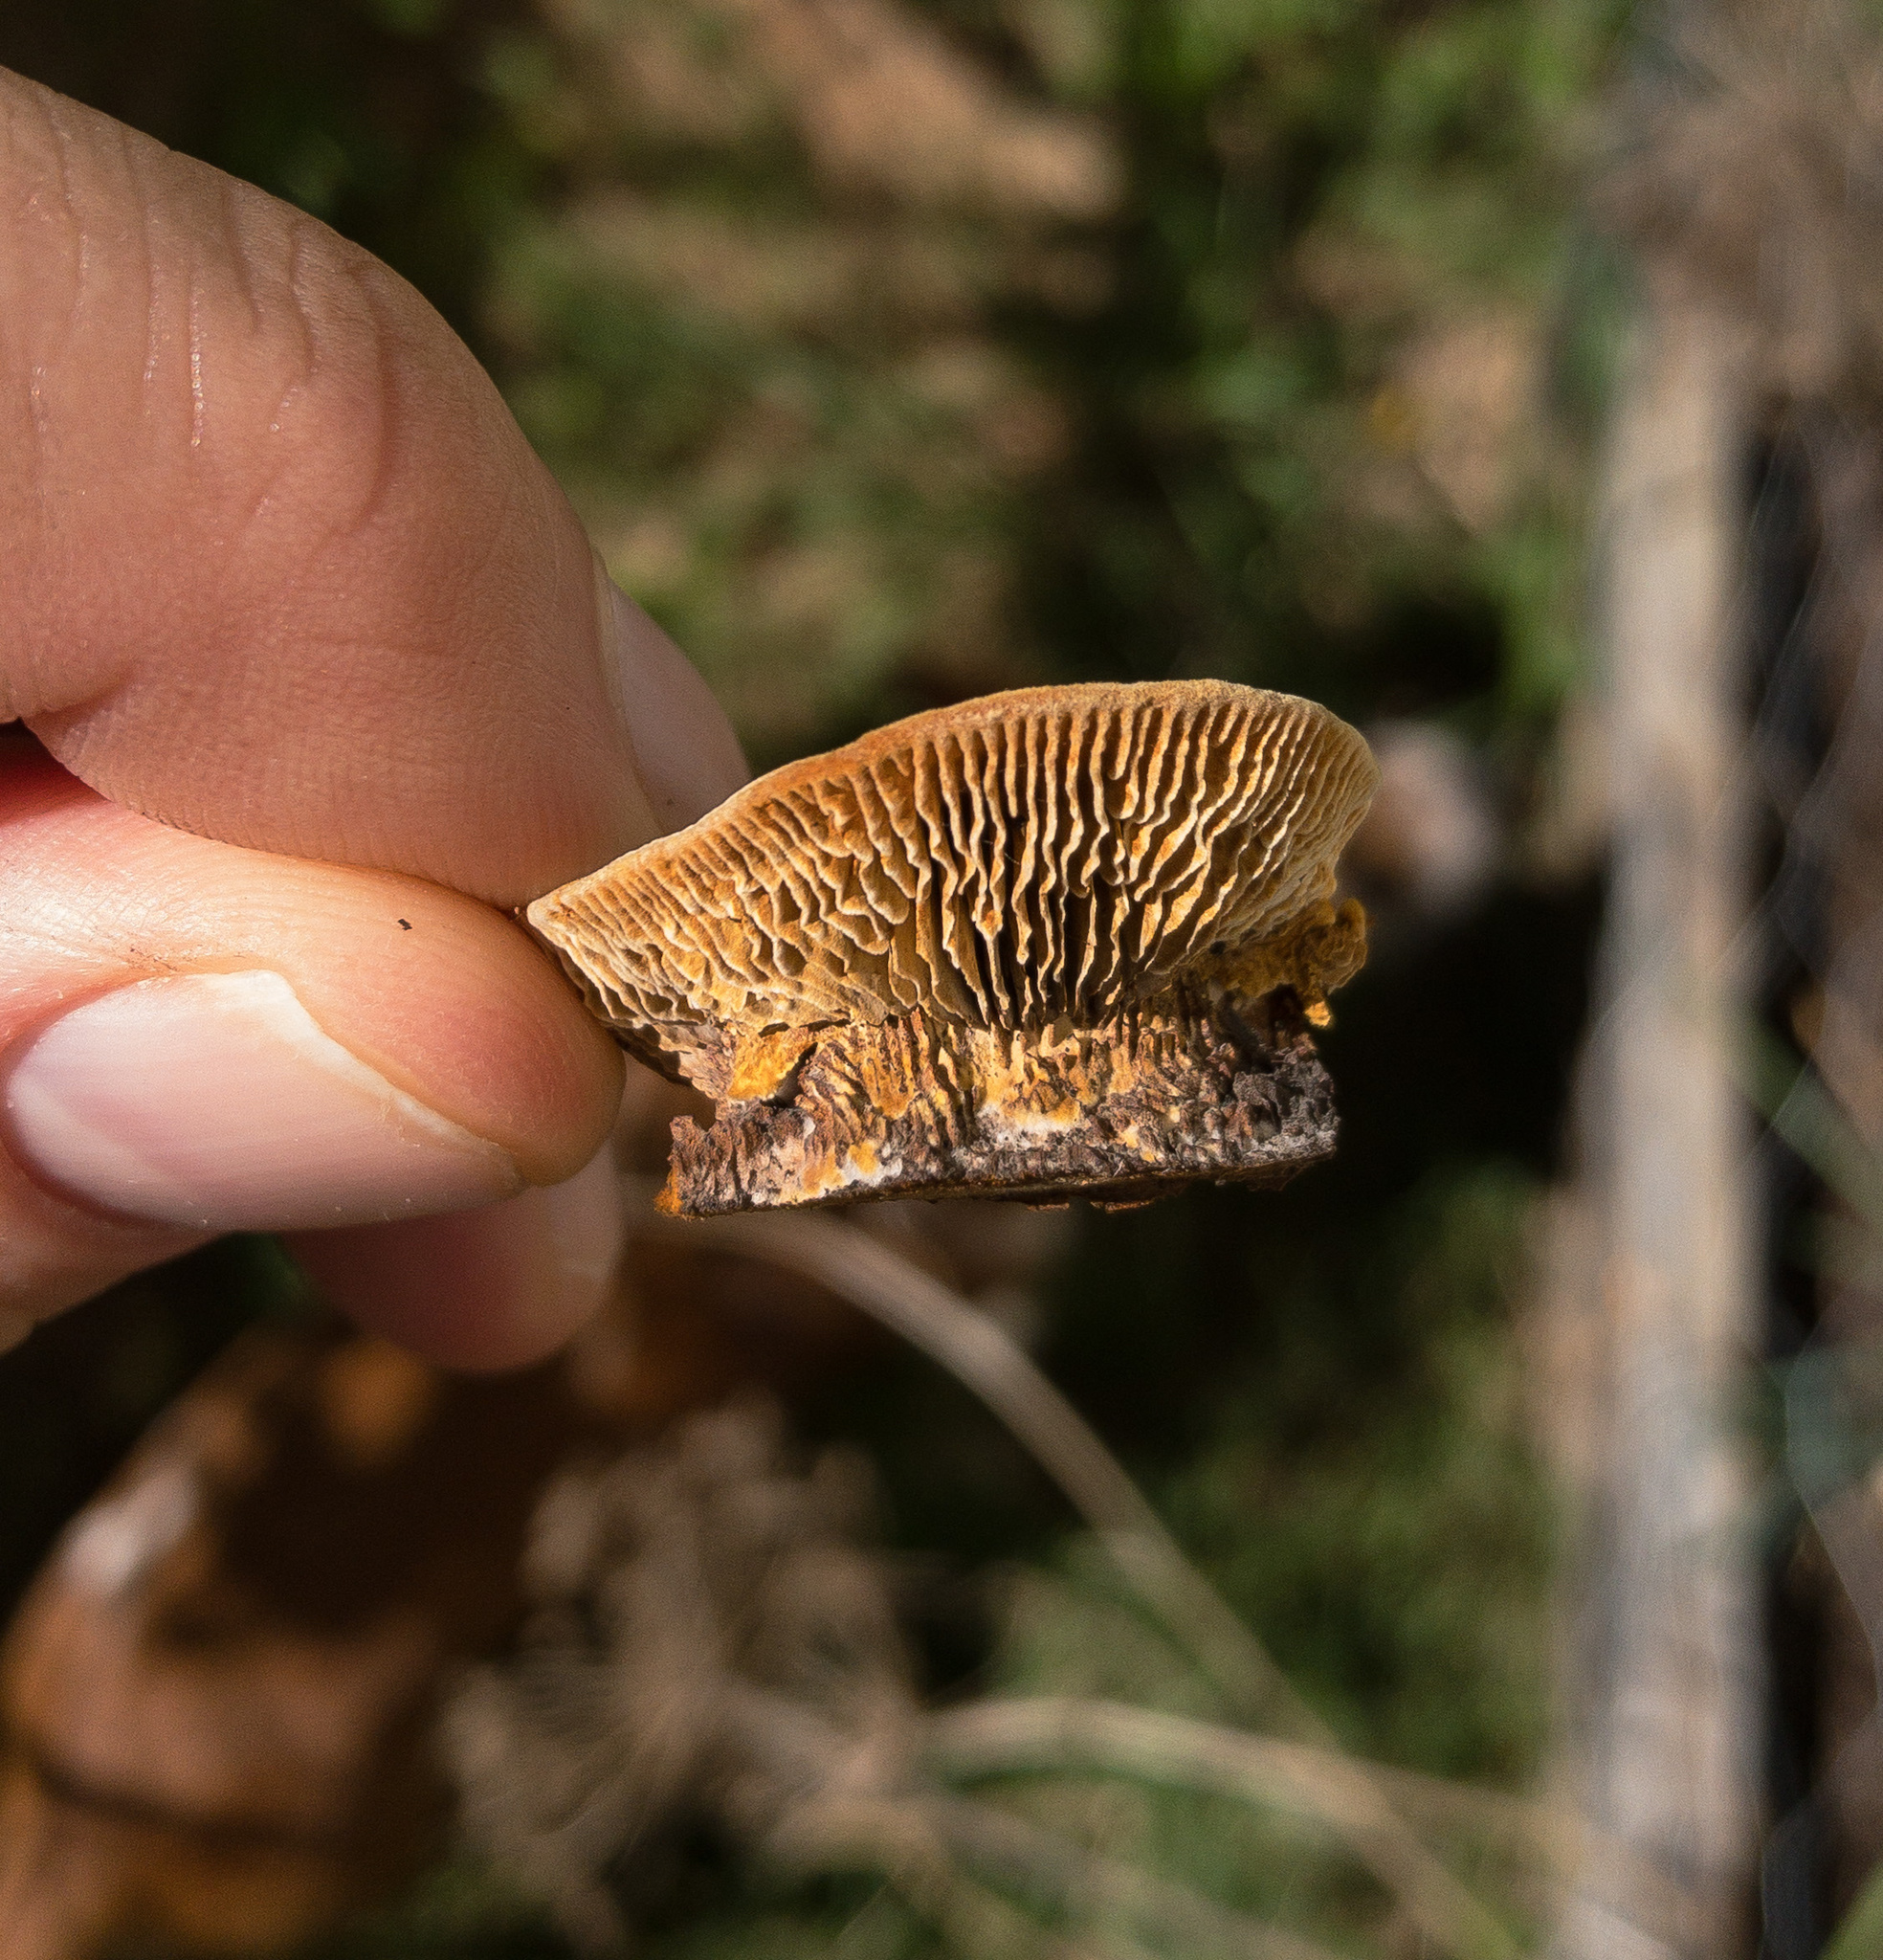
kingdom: Fungi
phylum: Basidiomycota
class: Agaricomycetes
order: Gloeophyllales
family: Gloeophyllaceae
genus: Gloeophyllum
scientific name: Gloeophyllum sepiarium
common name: Conifer mazegill
